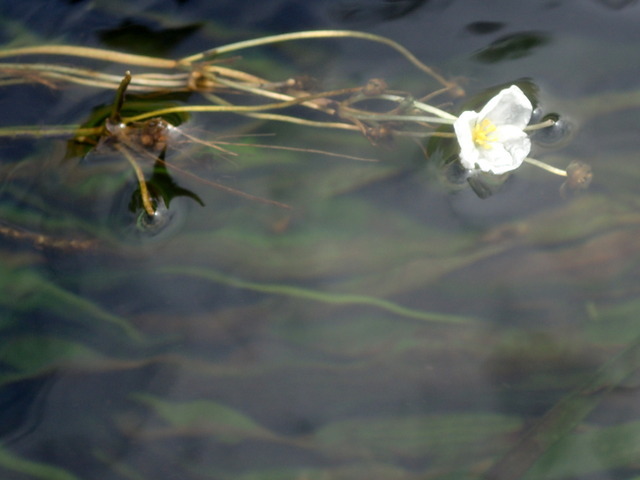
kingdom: Plantae
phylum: Tracheophyta
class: Liliopsida
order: Alismatales
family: Alismataceae
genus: Sagittaria
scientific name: Sagittaria kurziana
